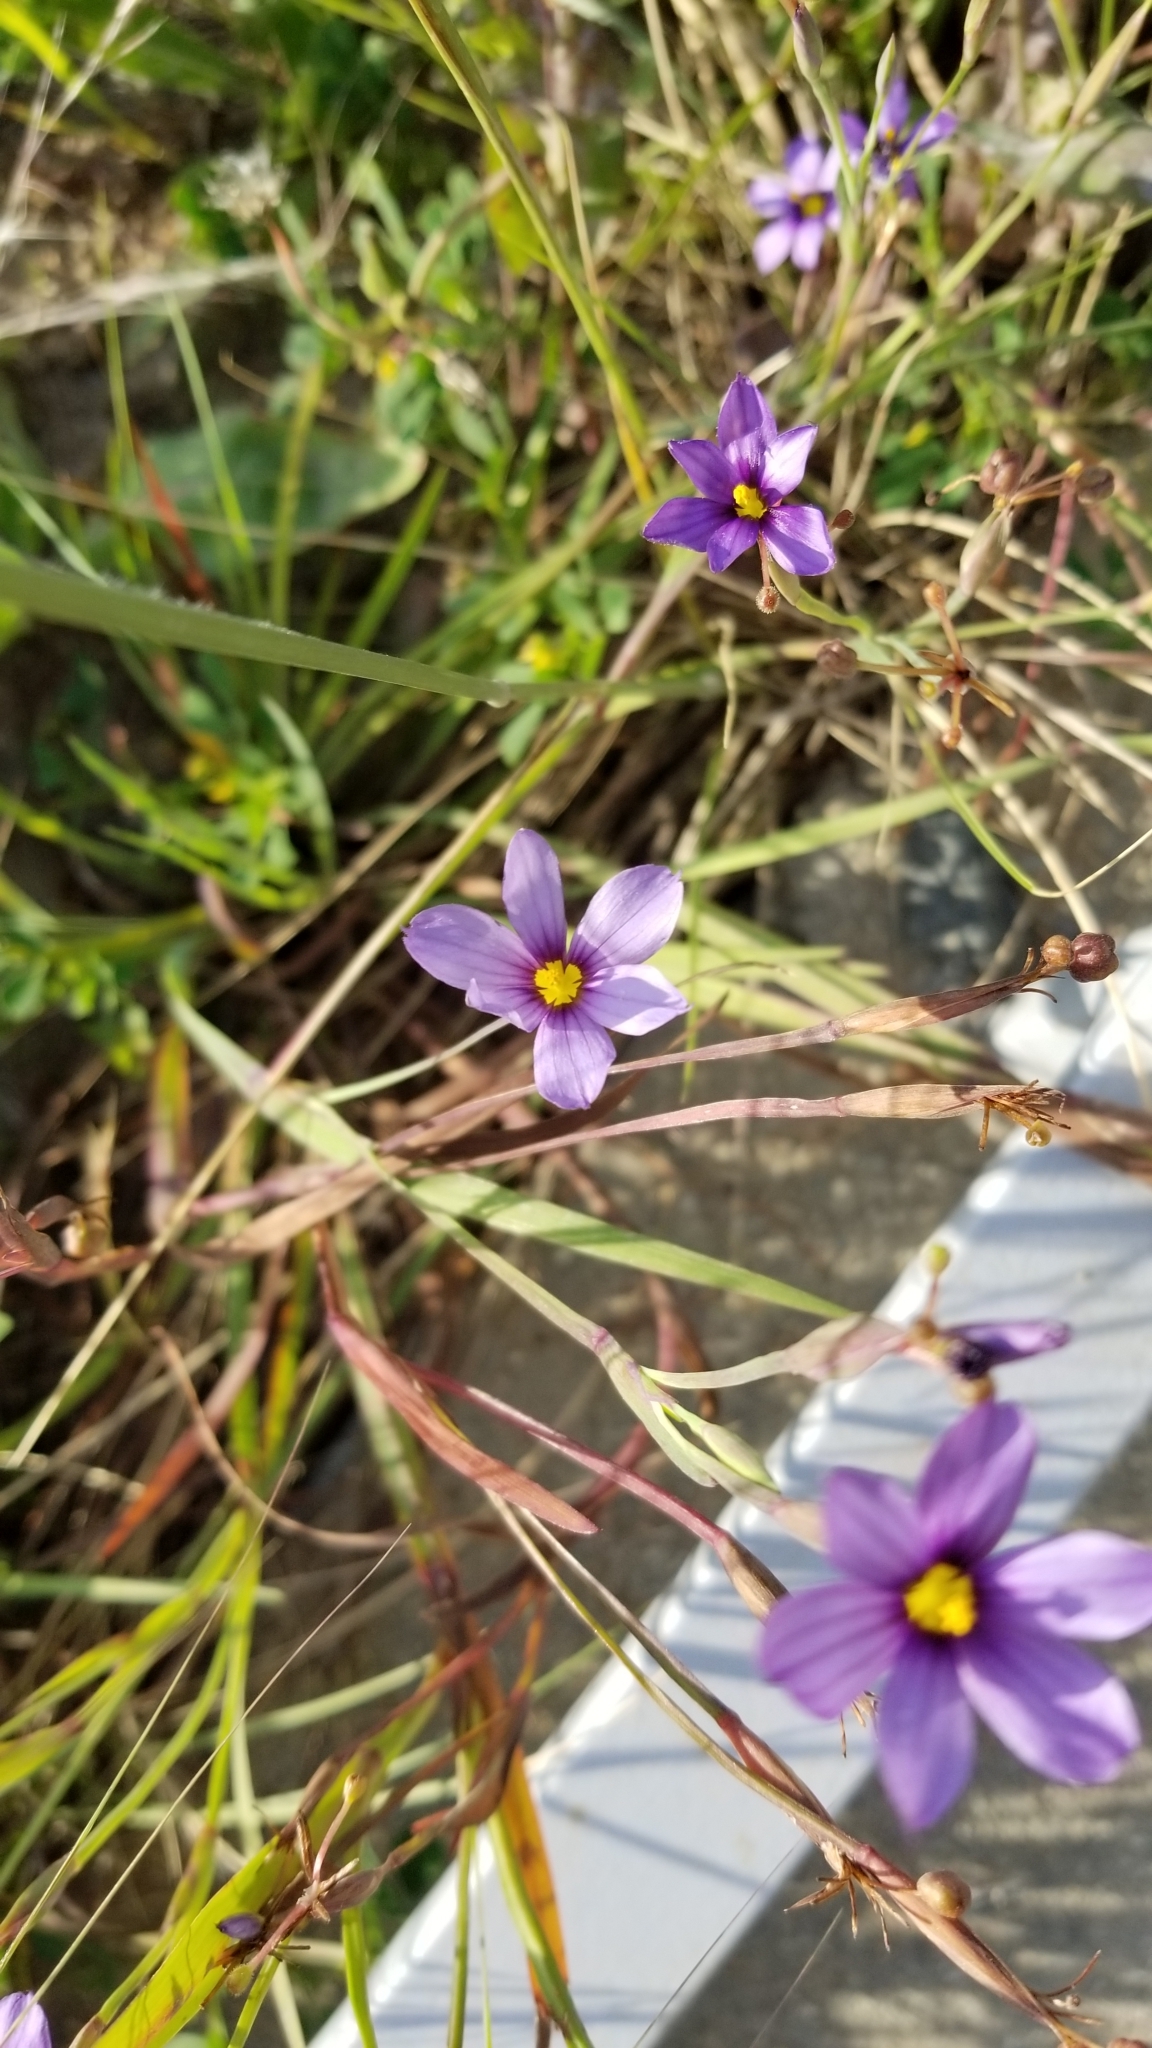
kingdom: Plantae
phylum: Tracheophyta
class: Liliopsida
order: Asparagales
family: Iridaceae
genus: Sisyrinchium
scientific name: Sisyrinchium bellum
